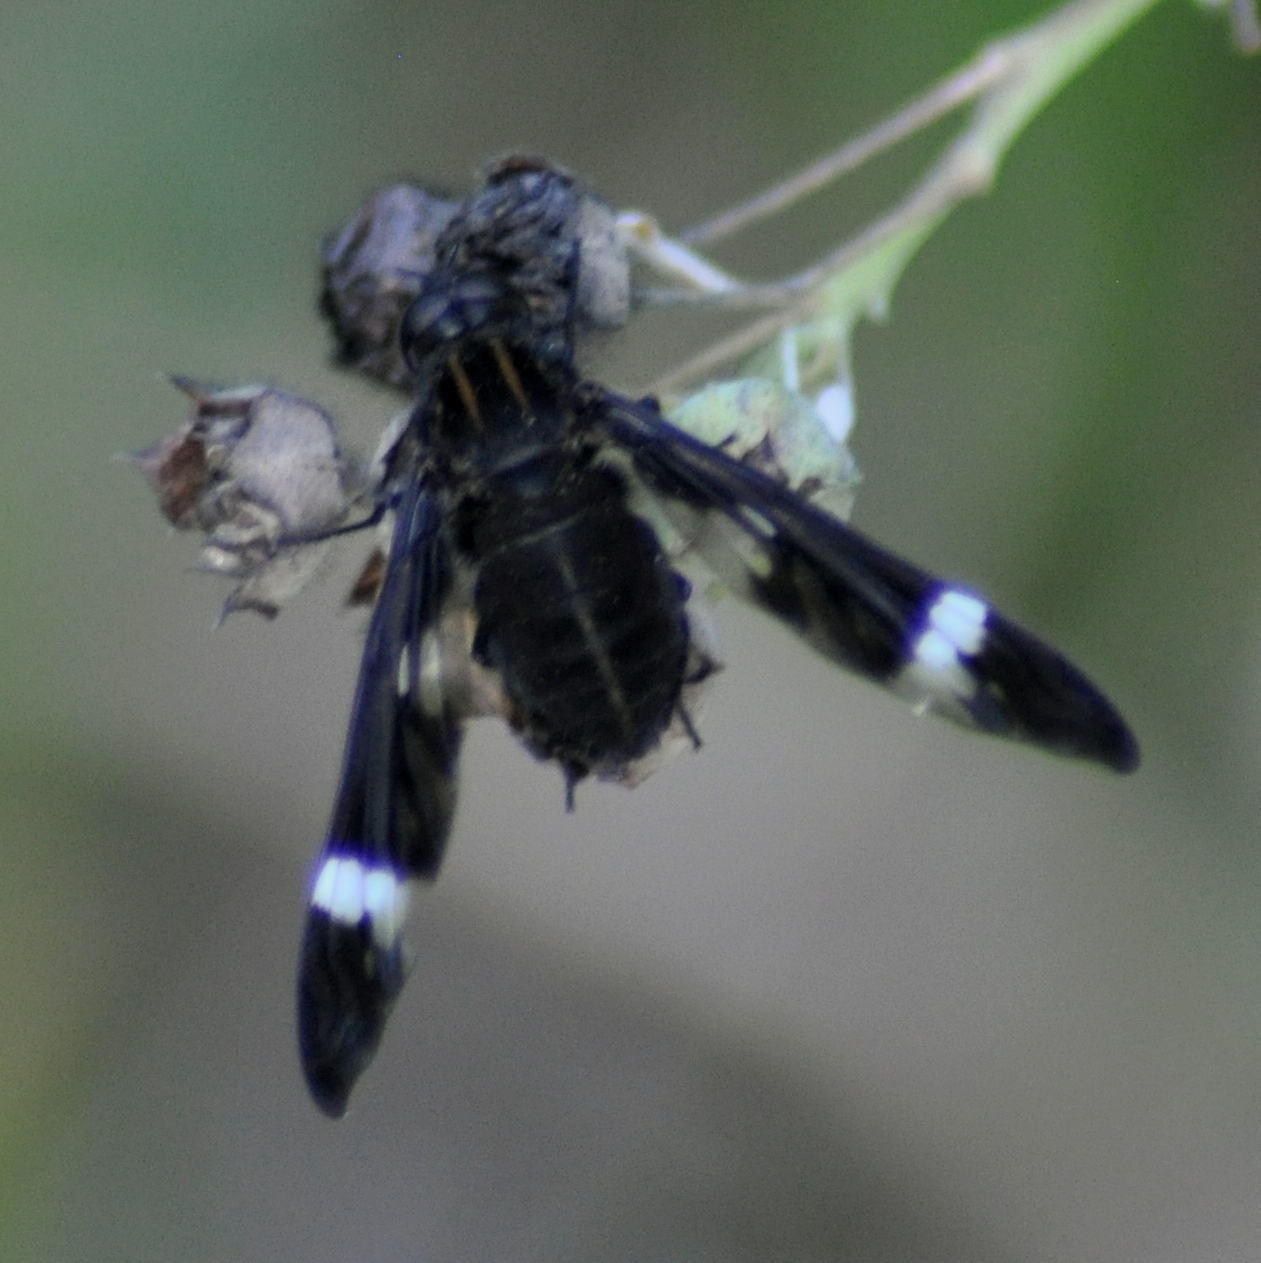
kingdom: Animalia
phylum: Arthropoda
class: Insecta
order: Diptera
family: Bombyliidae
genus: Ylasoia
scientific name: Ylasoia pegasus
